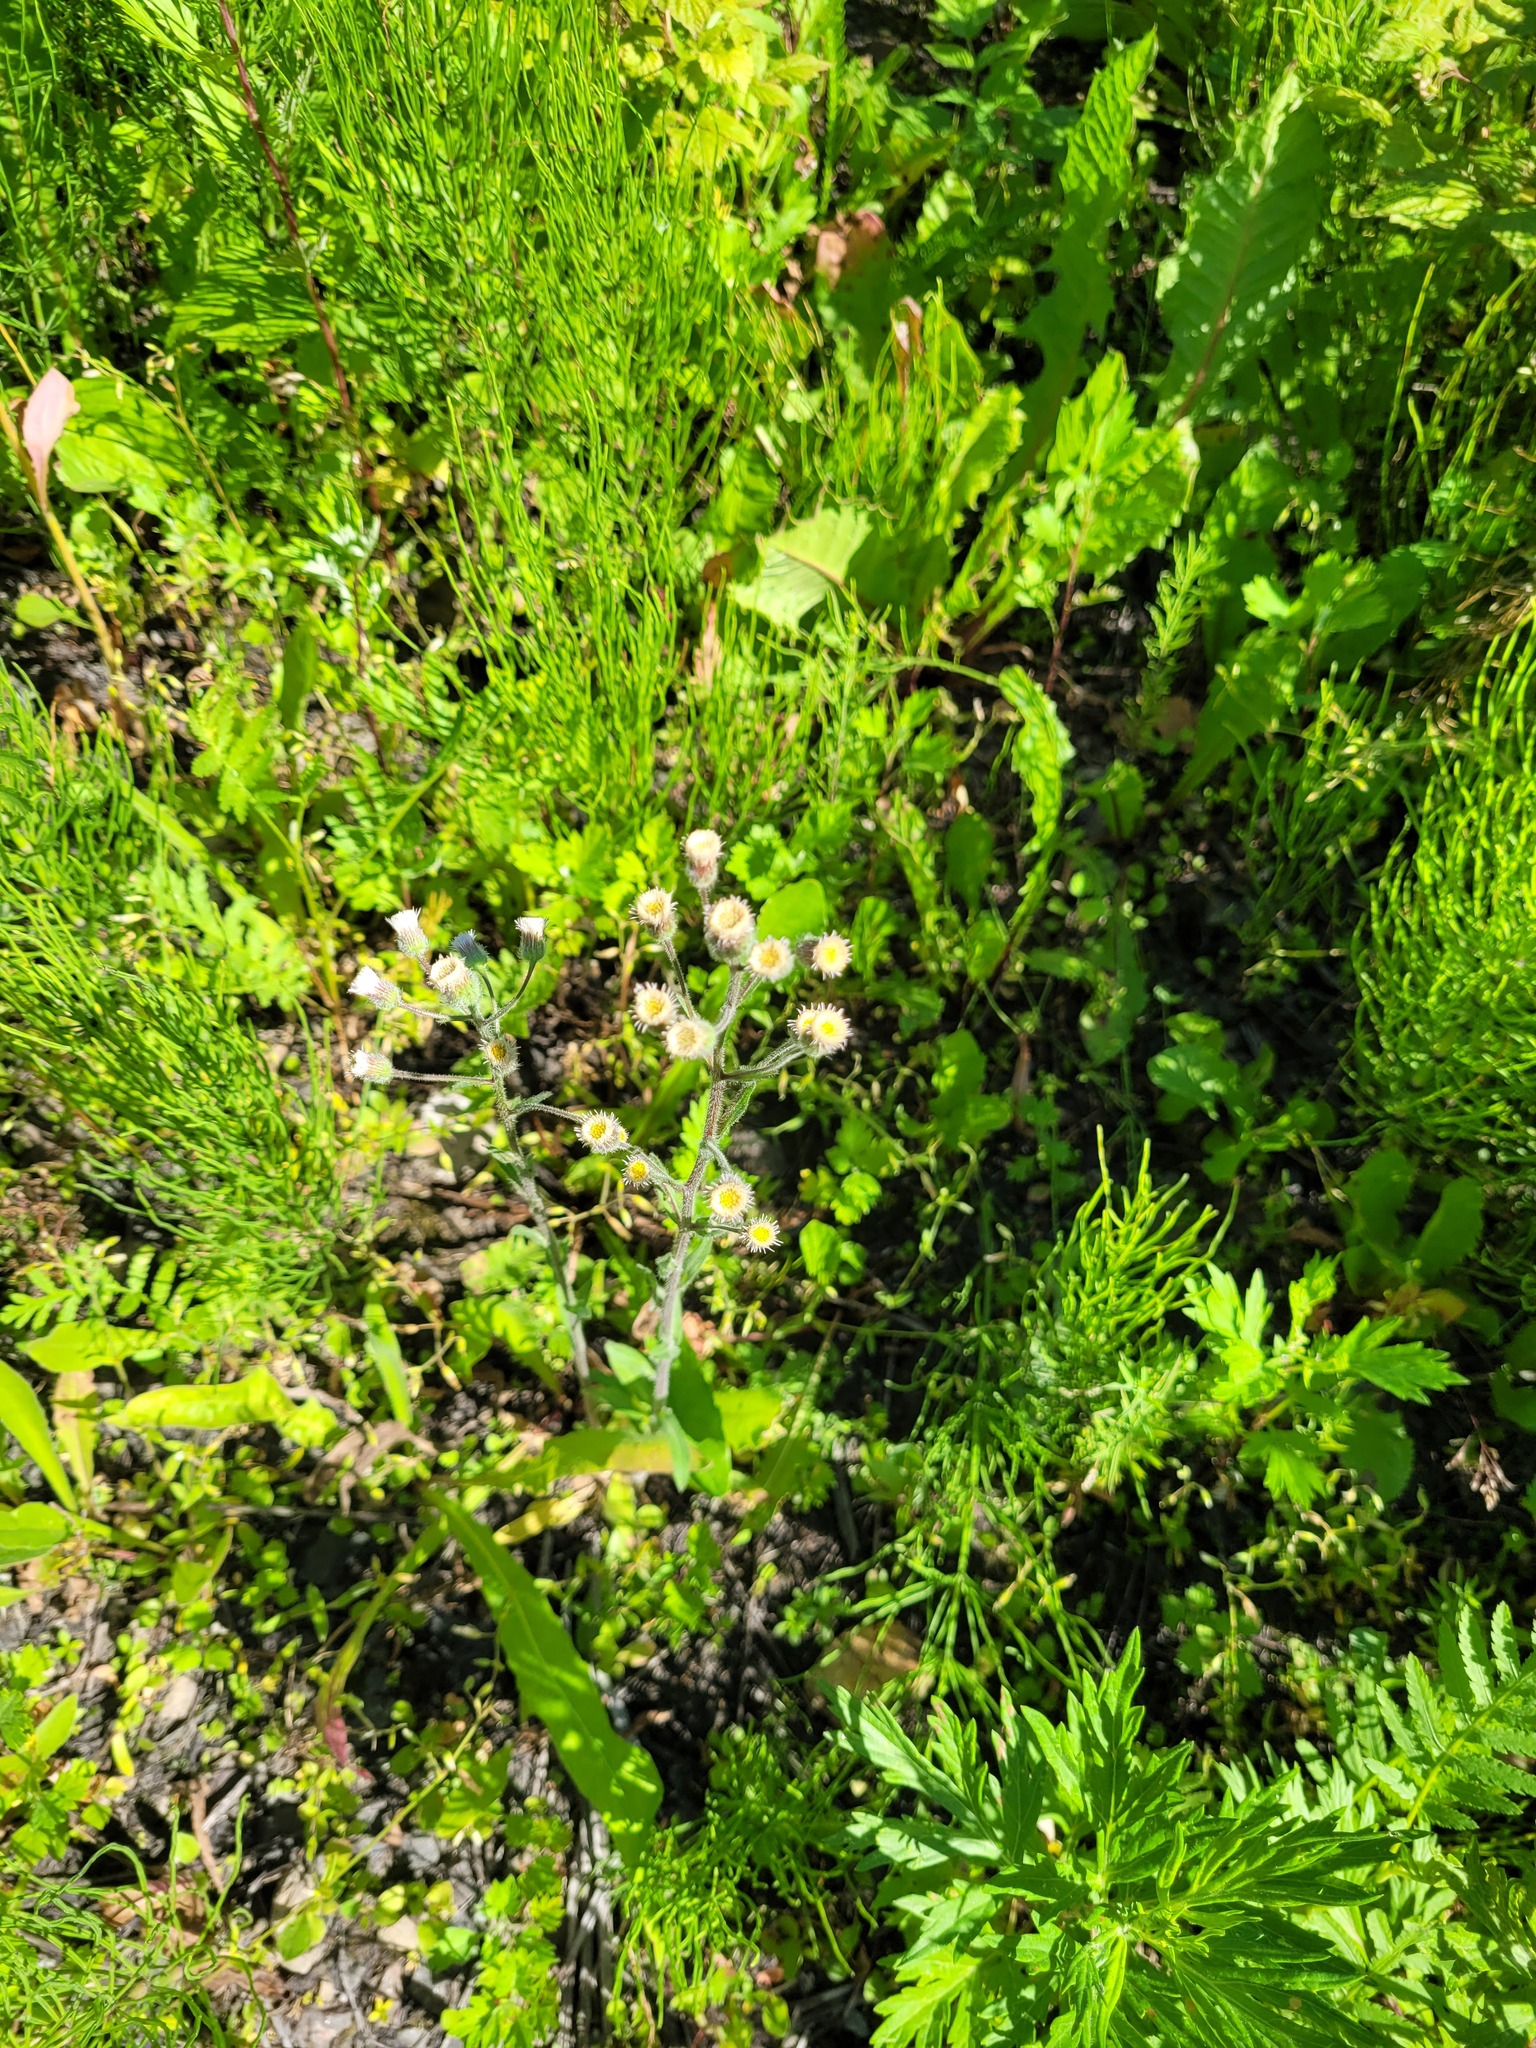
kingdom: Plantae
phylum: Tracheophyta
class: Magnoliopsida
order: Asterales
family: Asteraceae
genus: Erigeron
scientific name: Erigeron acris
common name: Blue fleabane
